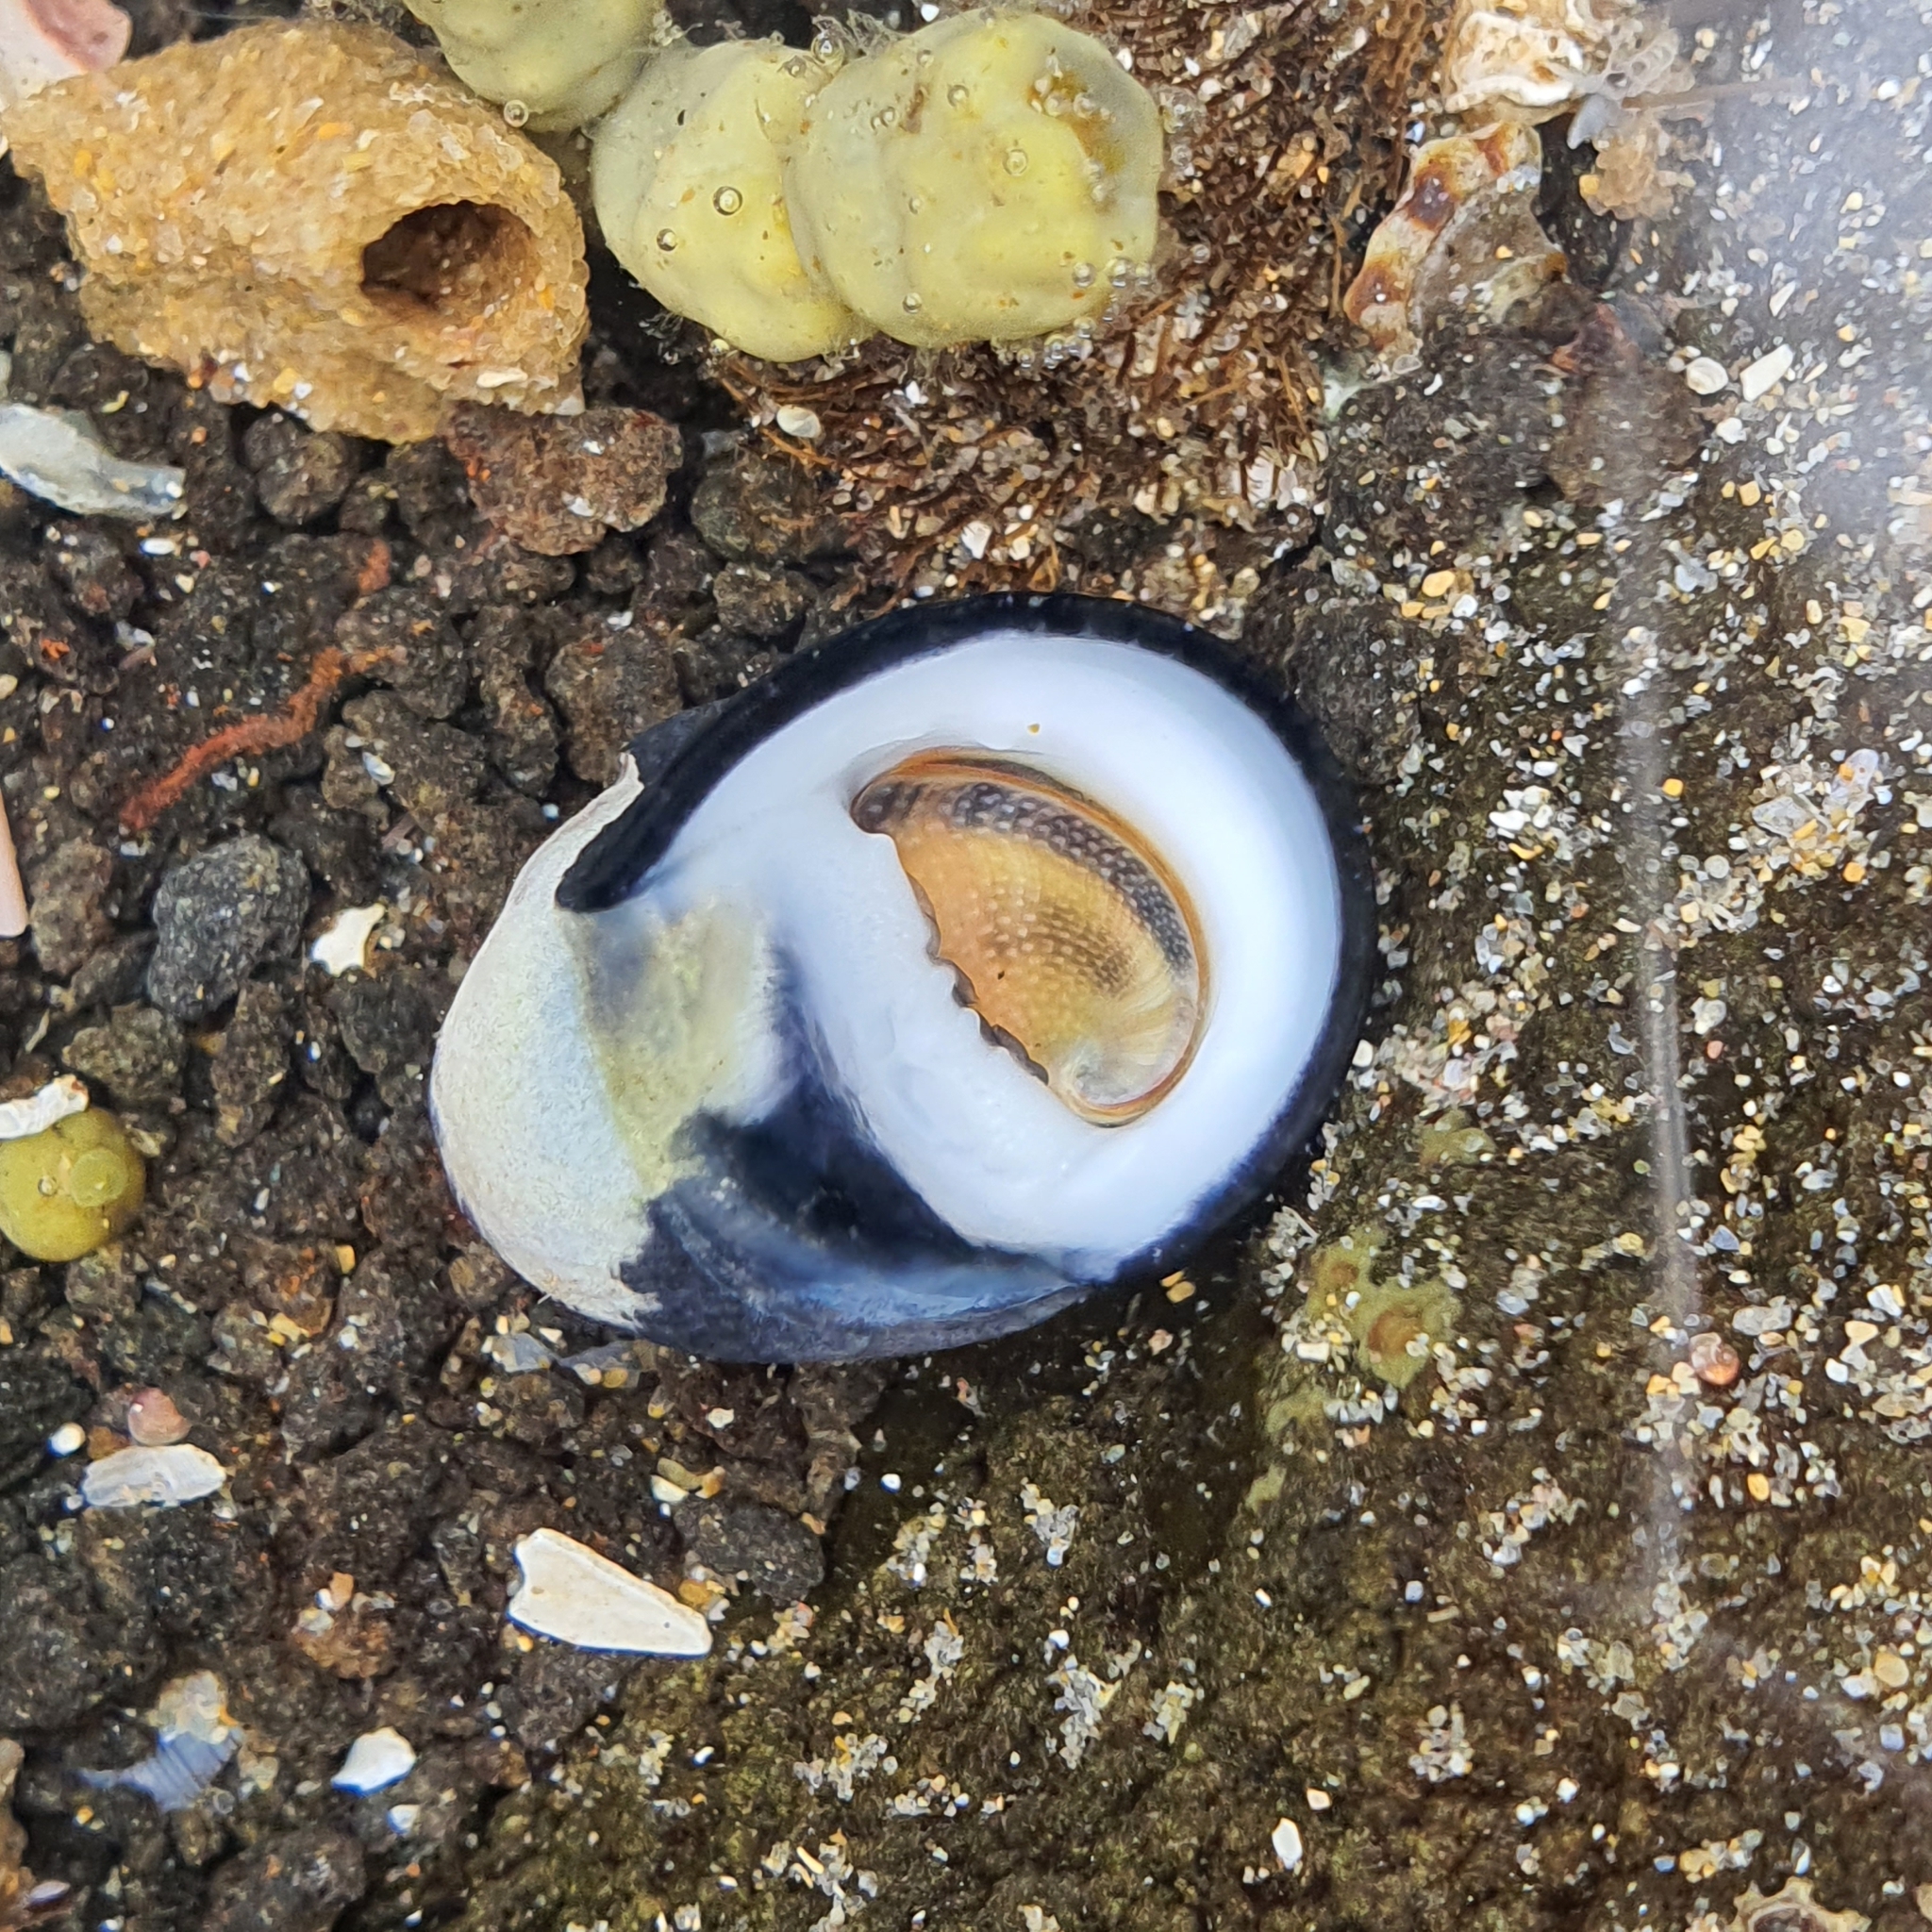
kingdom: Animalia
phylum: Mollusca
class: Gastropoda
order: Cycloneritida
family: Neritidae
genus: Nerita
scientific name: Nerita melanotragus
